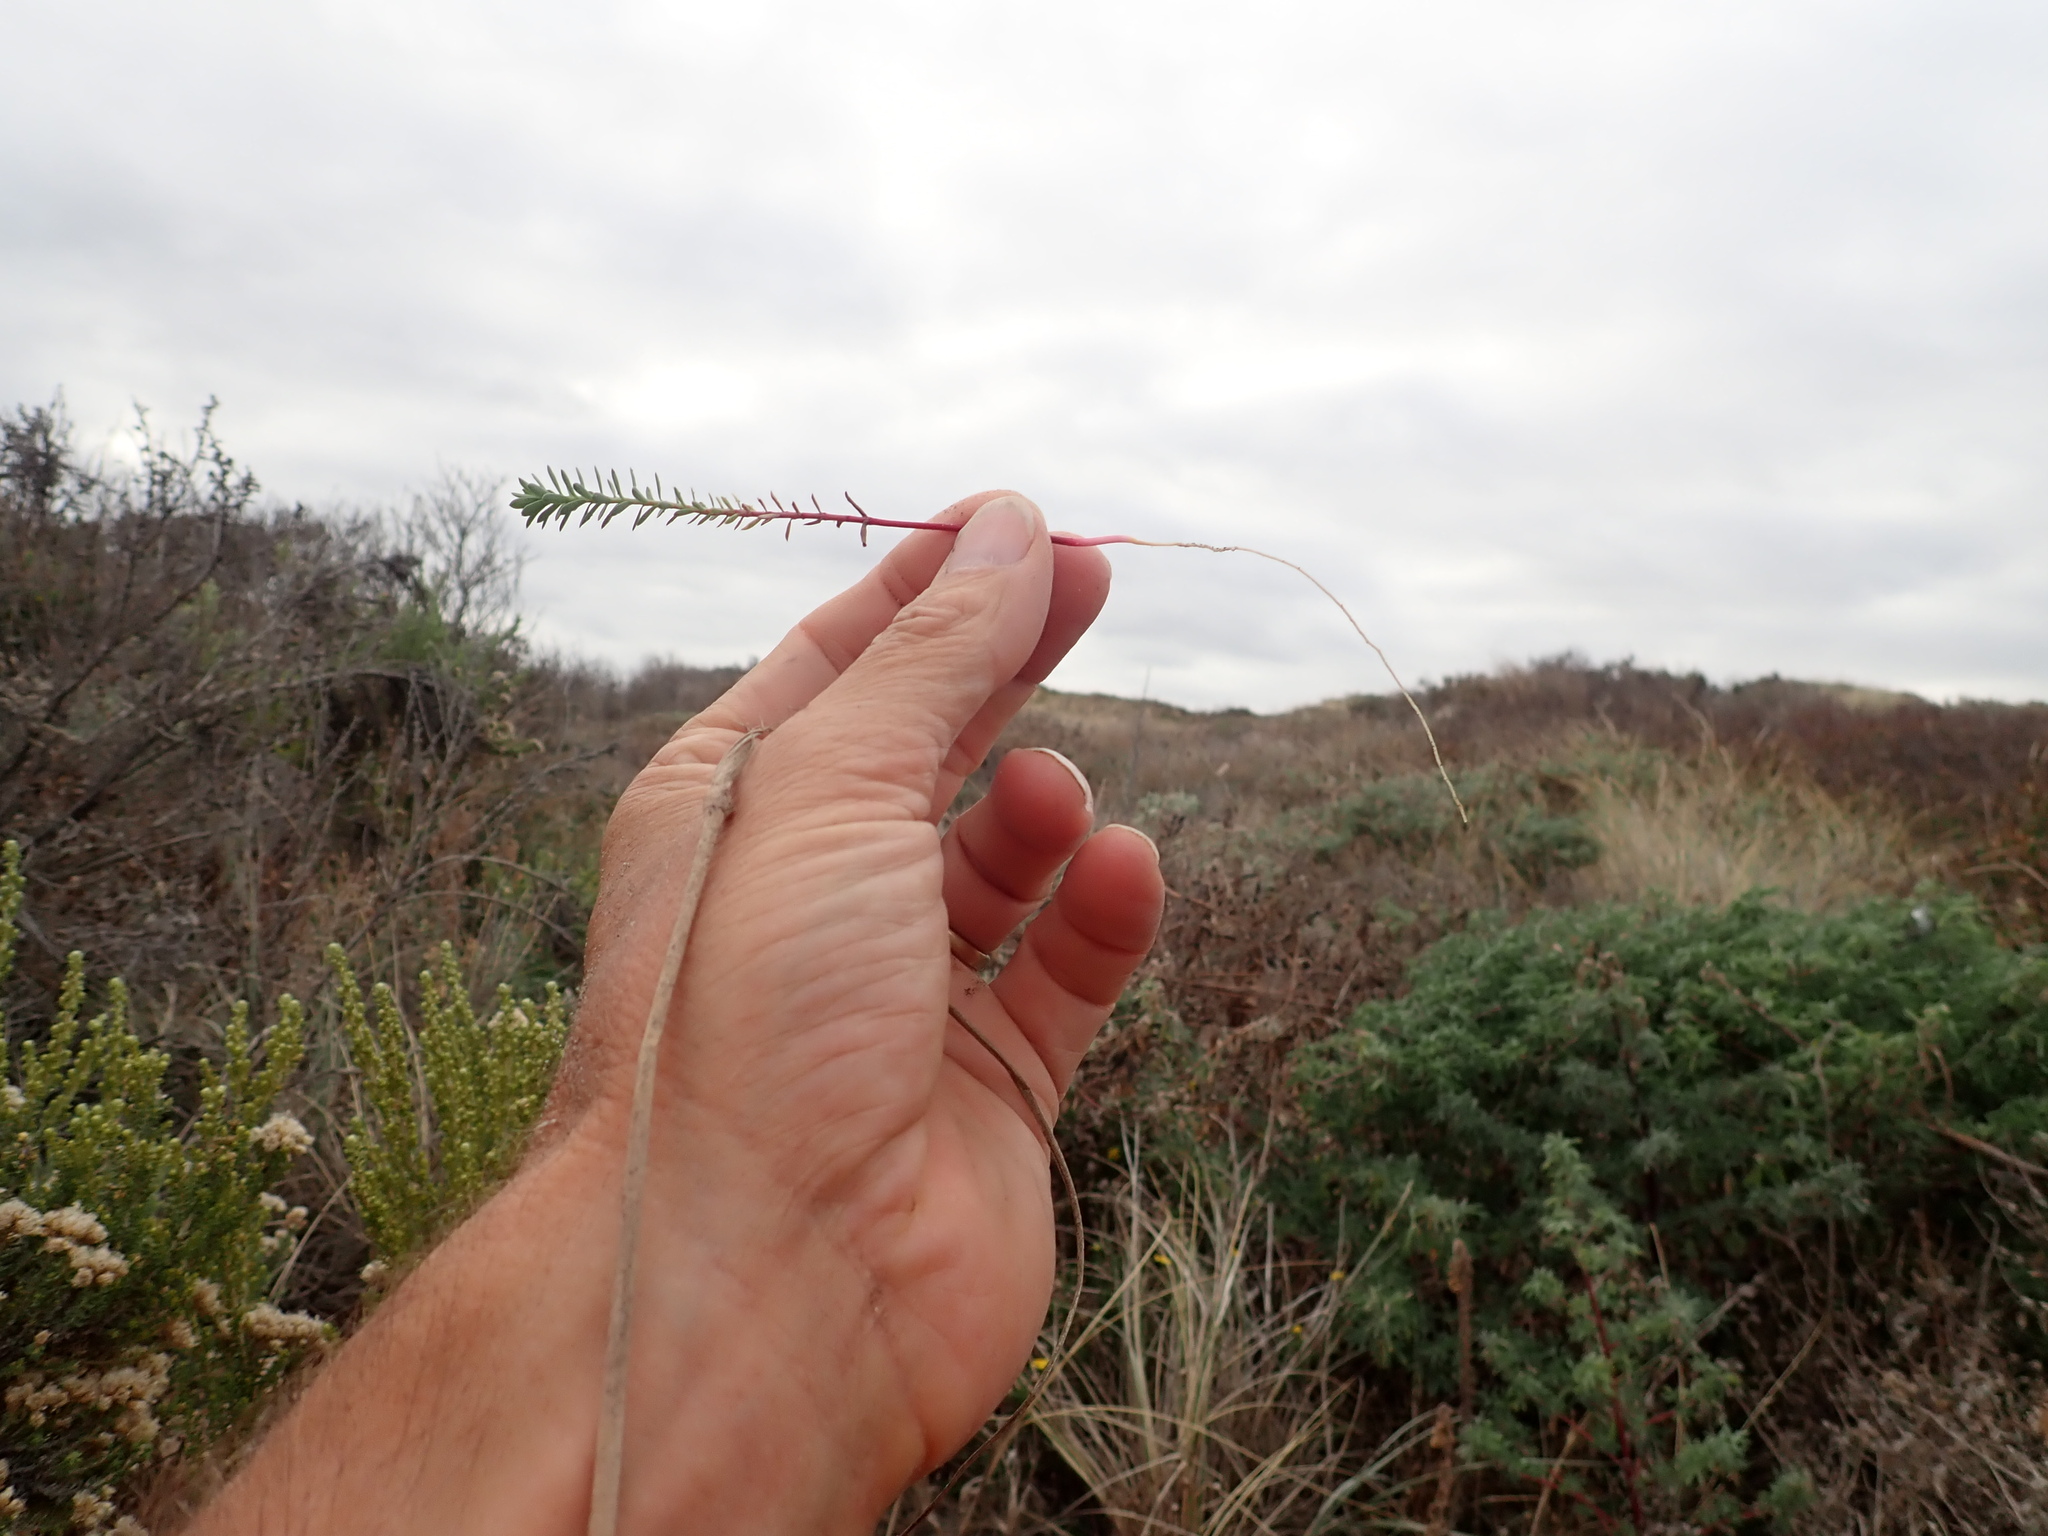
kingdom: Plantae
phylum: Tracheophyta
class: Magnoliopsida
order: Malpighiales
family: Euphorbiaceae
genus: Euphorbia
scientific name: Euphorbia paralias
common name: Sea spurge
